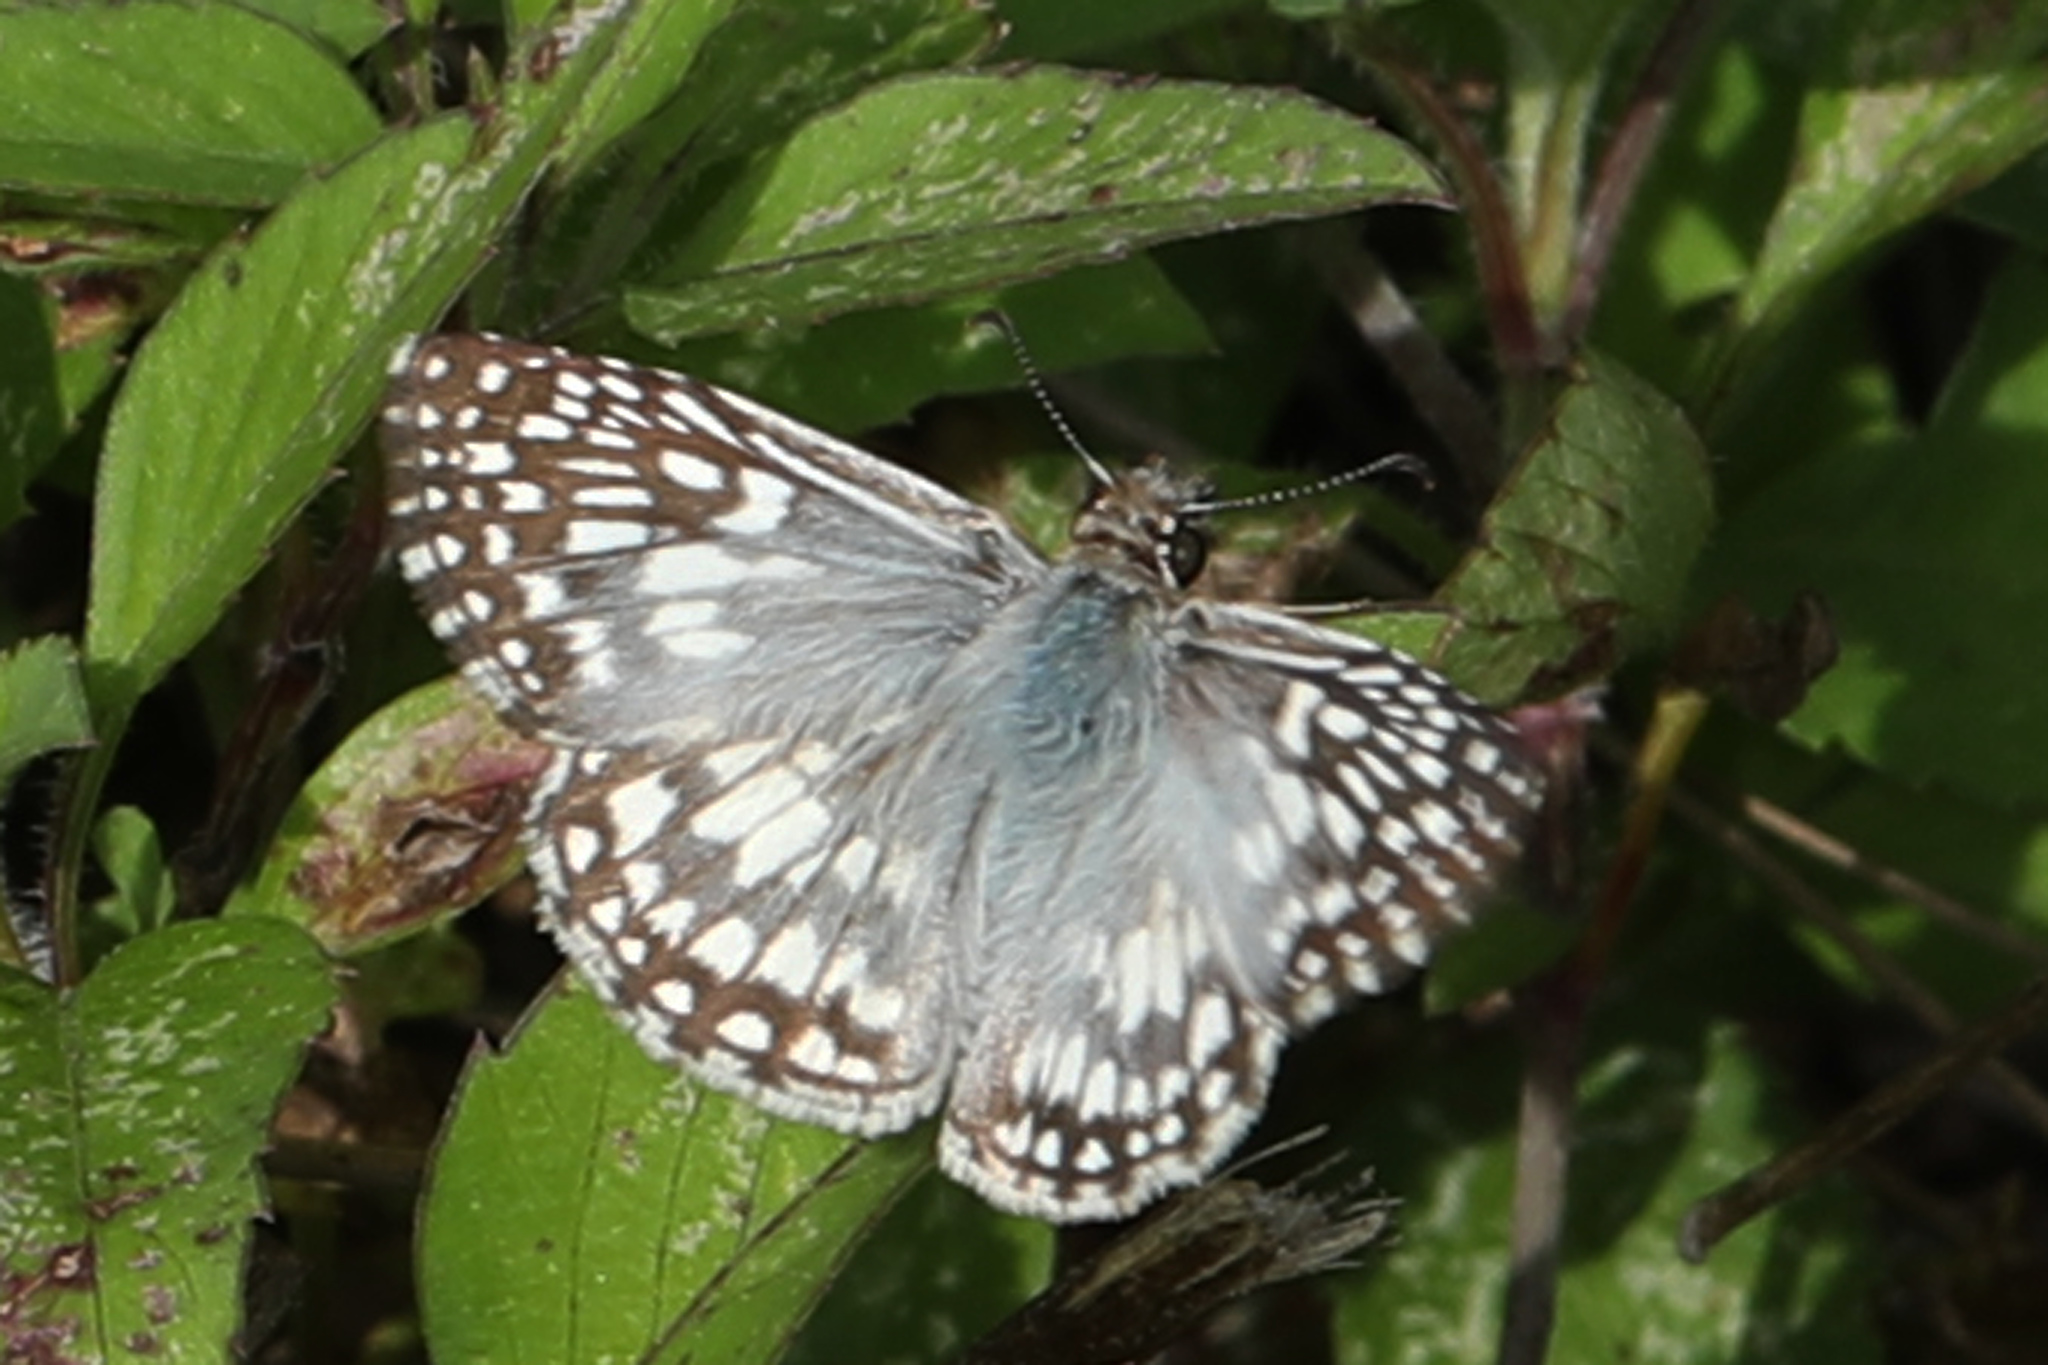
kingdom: Animalia
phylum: Arthropoda
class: Insecta
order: Lepidoptera
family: Hesperiidae
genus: Pyrgus
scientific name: Pyrgus oileus
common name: Tropical checkered-skipper
